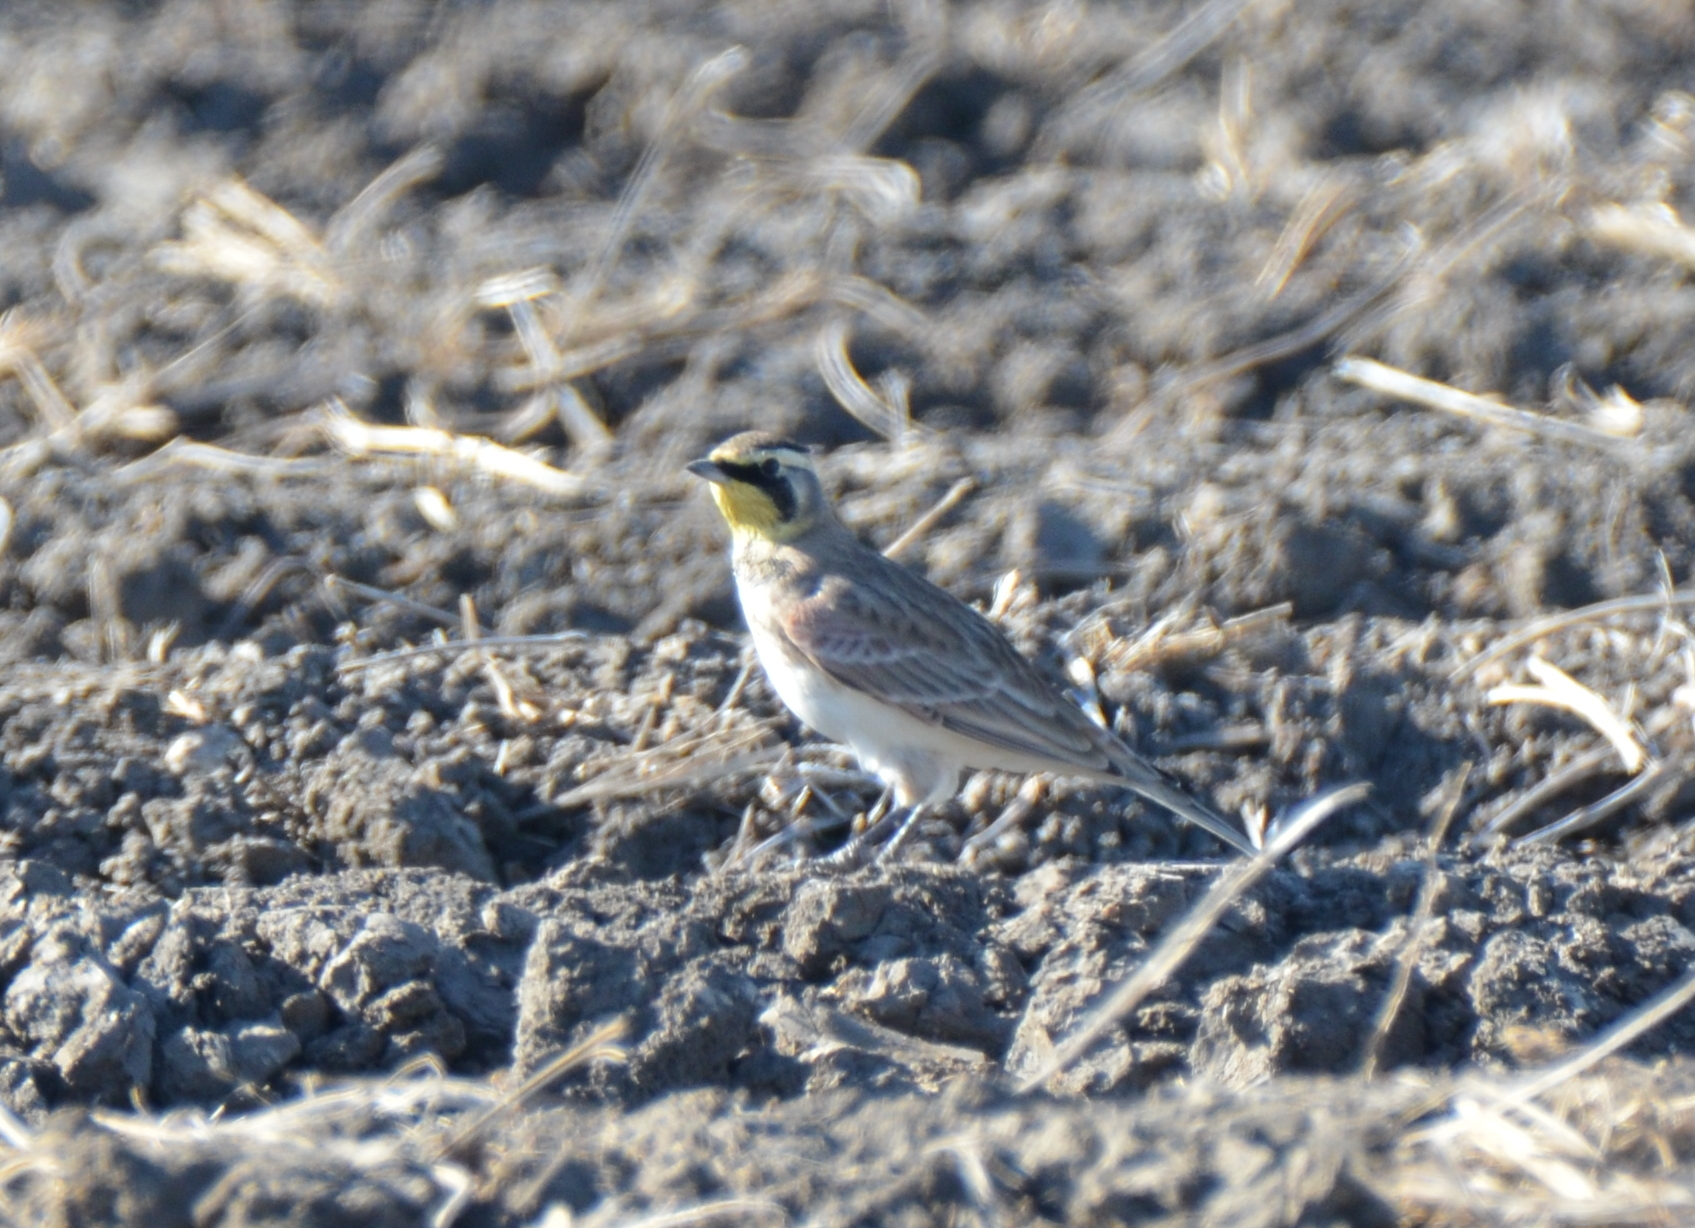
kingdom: Animalia
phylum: Chordata
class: Aves
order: Passeriformes
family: Alaudidae
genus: Eremophila
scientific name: Eremophila alpestris
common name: Horned lark
